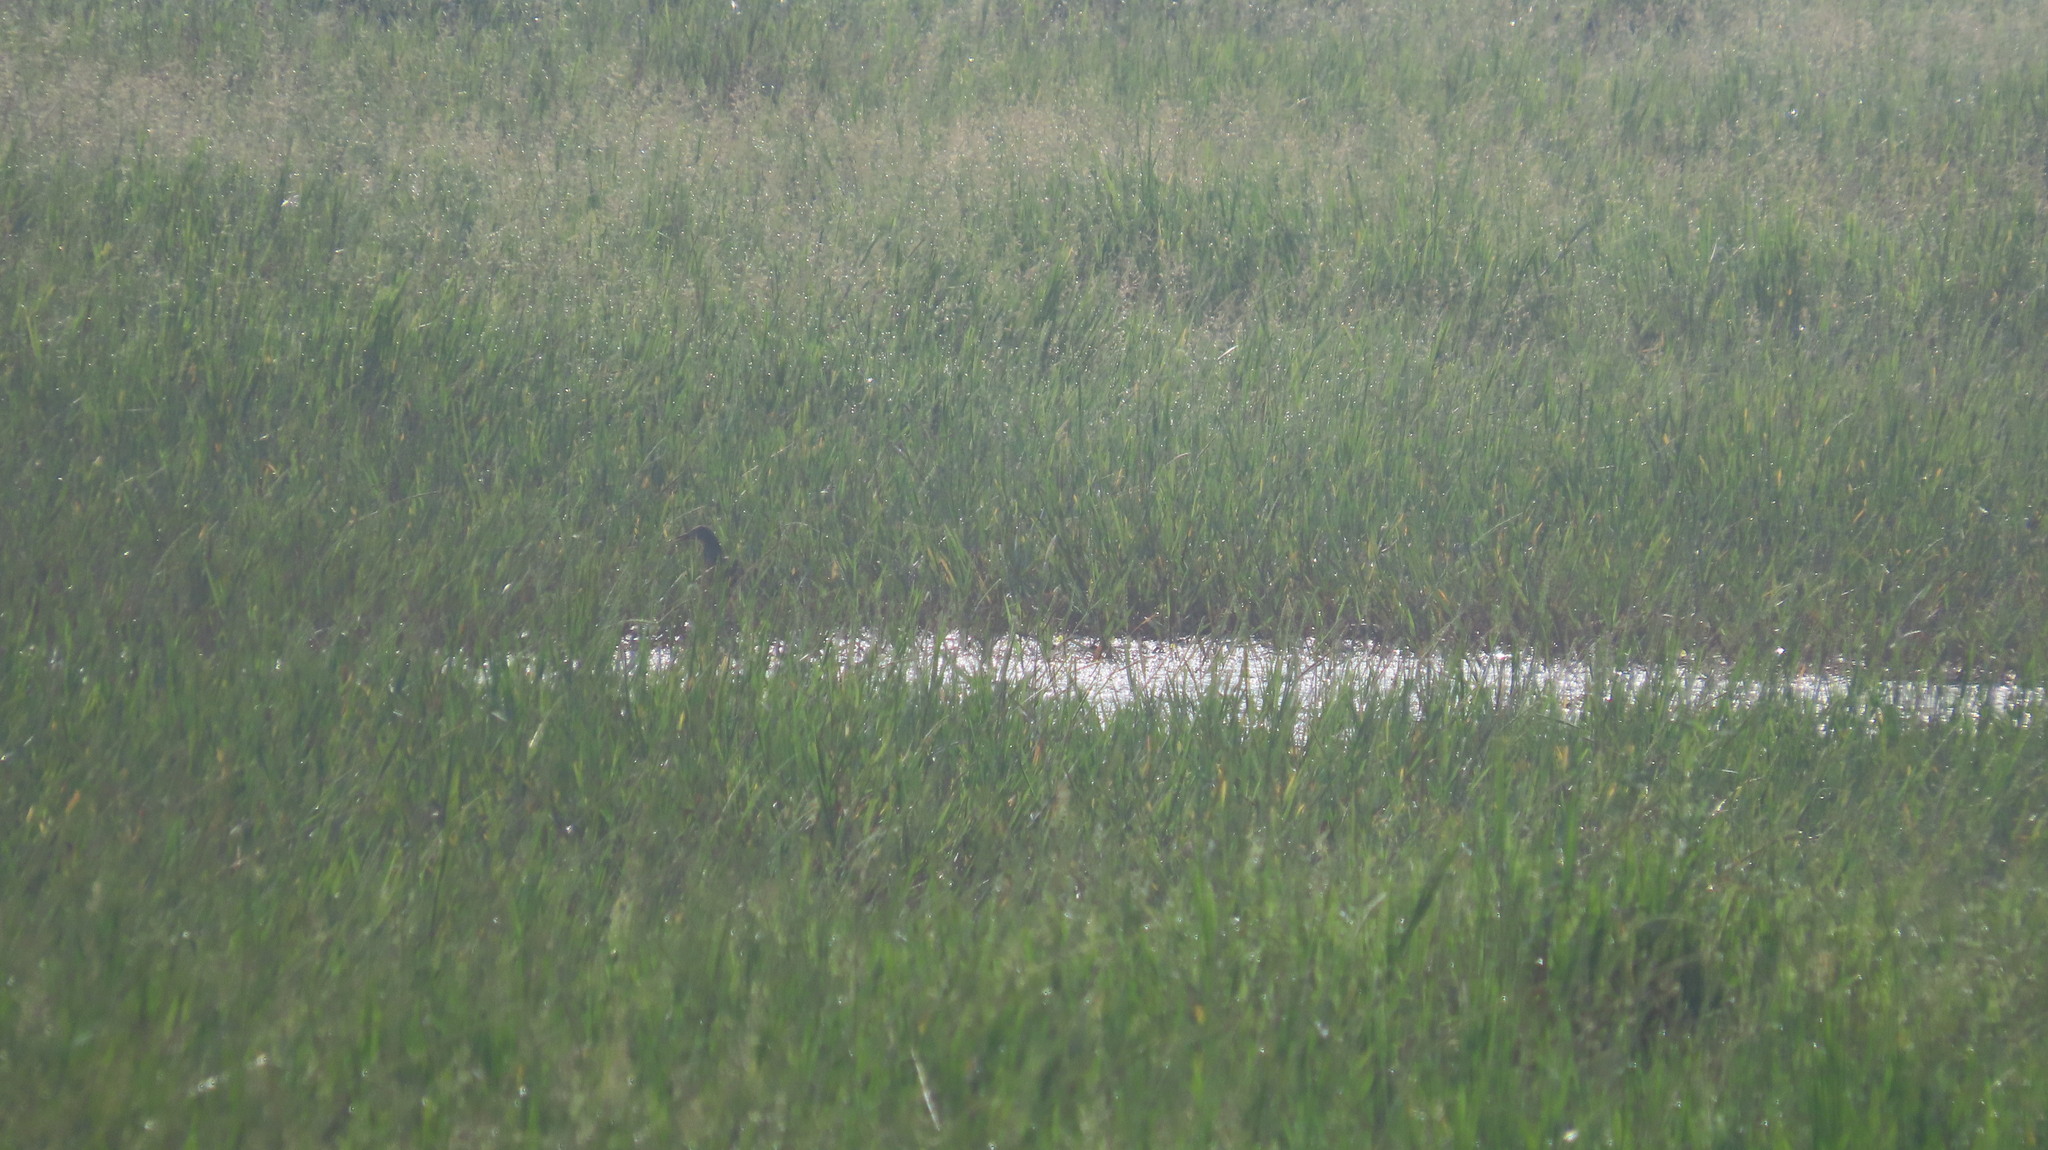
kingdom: Animalia
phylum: Chordata
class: Aves
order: Pelecaniformes
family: Ardeidae
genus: Ardeola
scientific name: Ardeola grayii
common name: Indian pond heron
